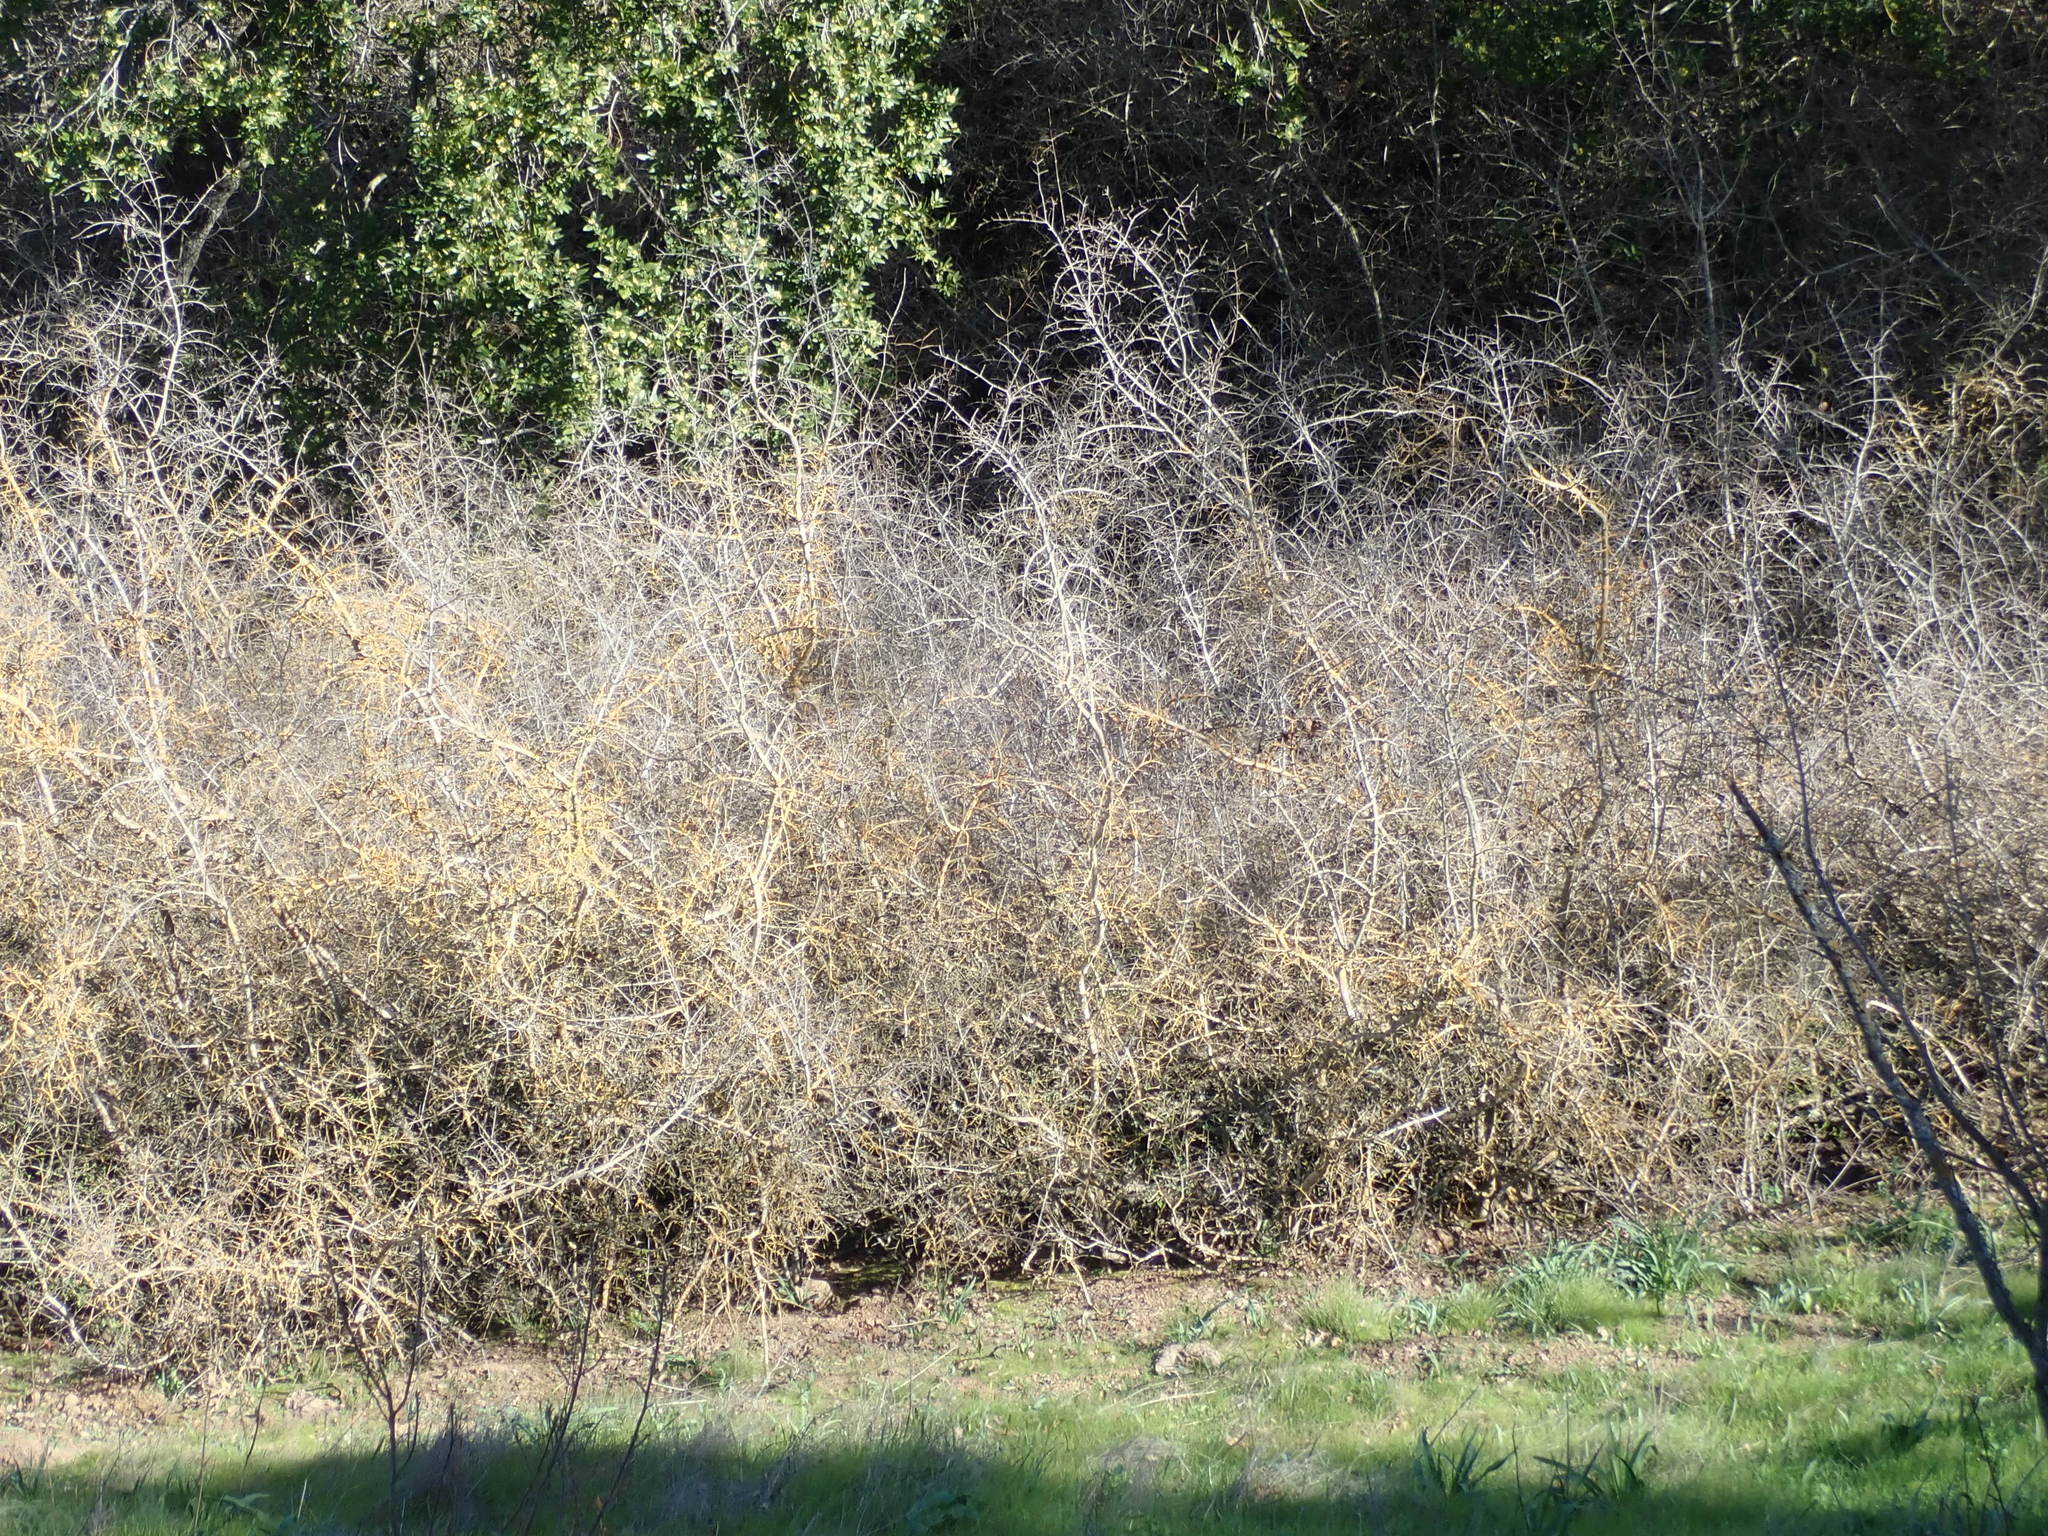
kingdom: Plantae
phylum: Tracheophyta
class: Magnoliopsida
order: Lamiales
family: Oleaceae
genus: Forestiera
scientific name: Forestiera pubescens
